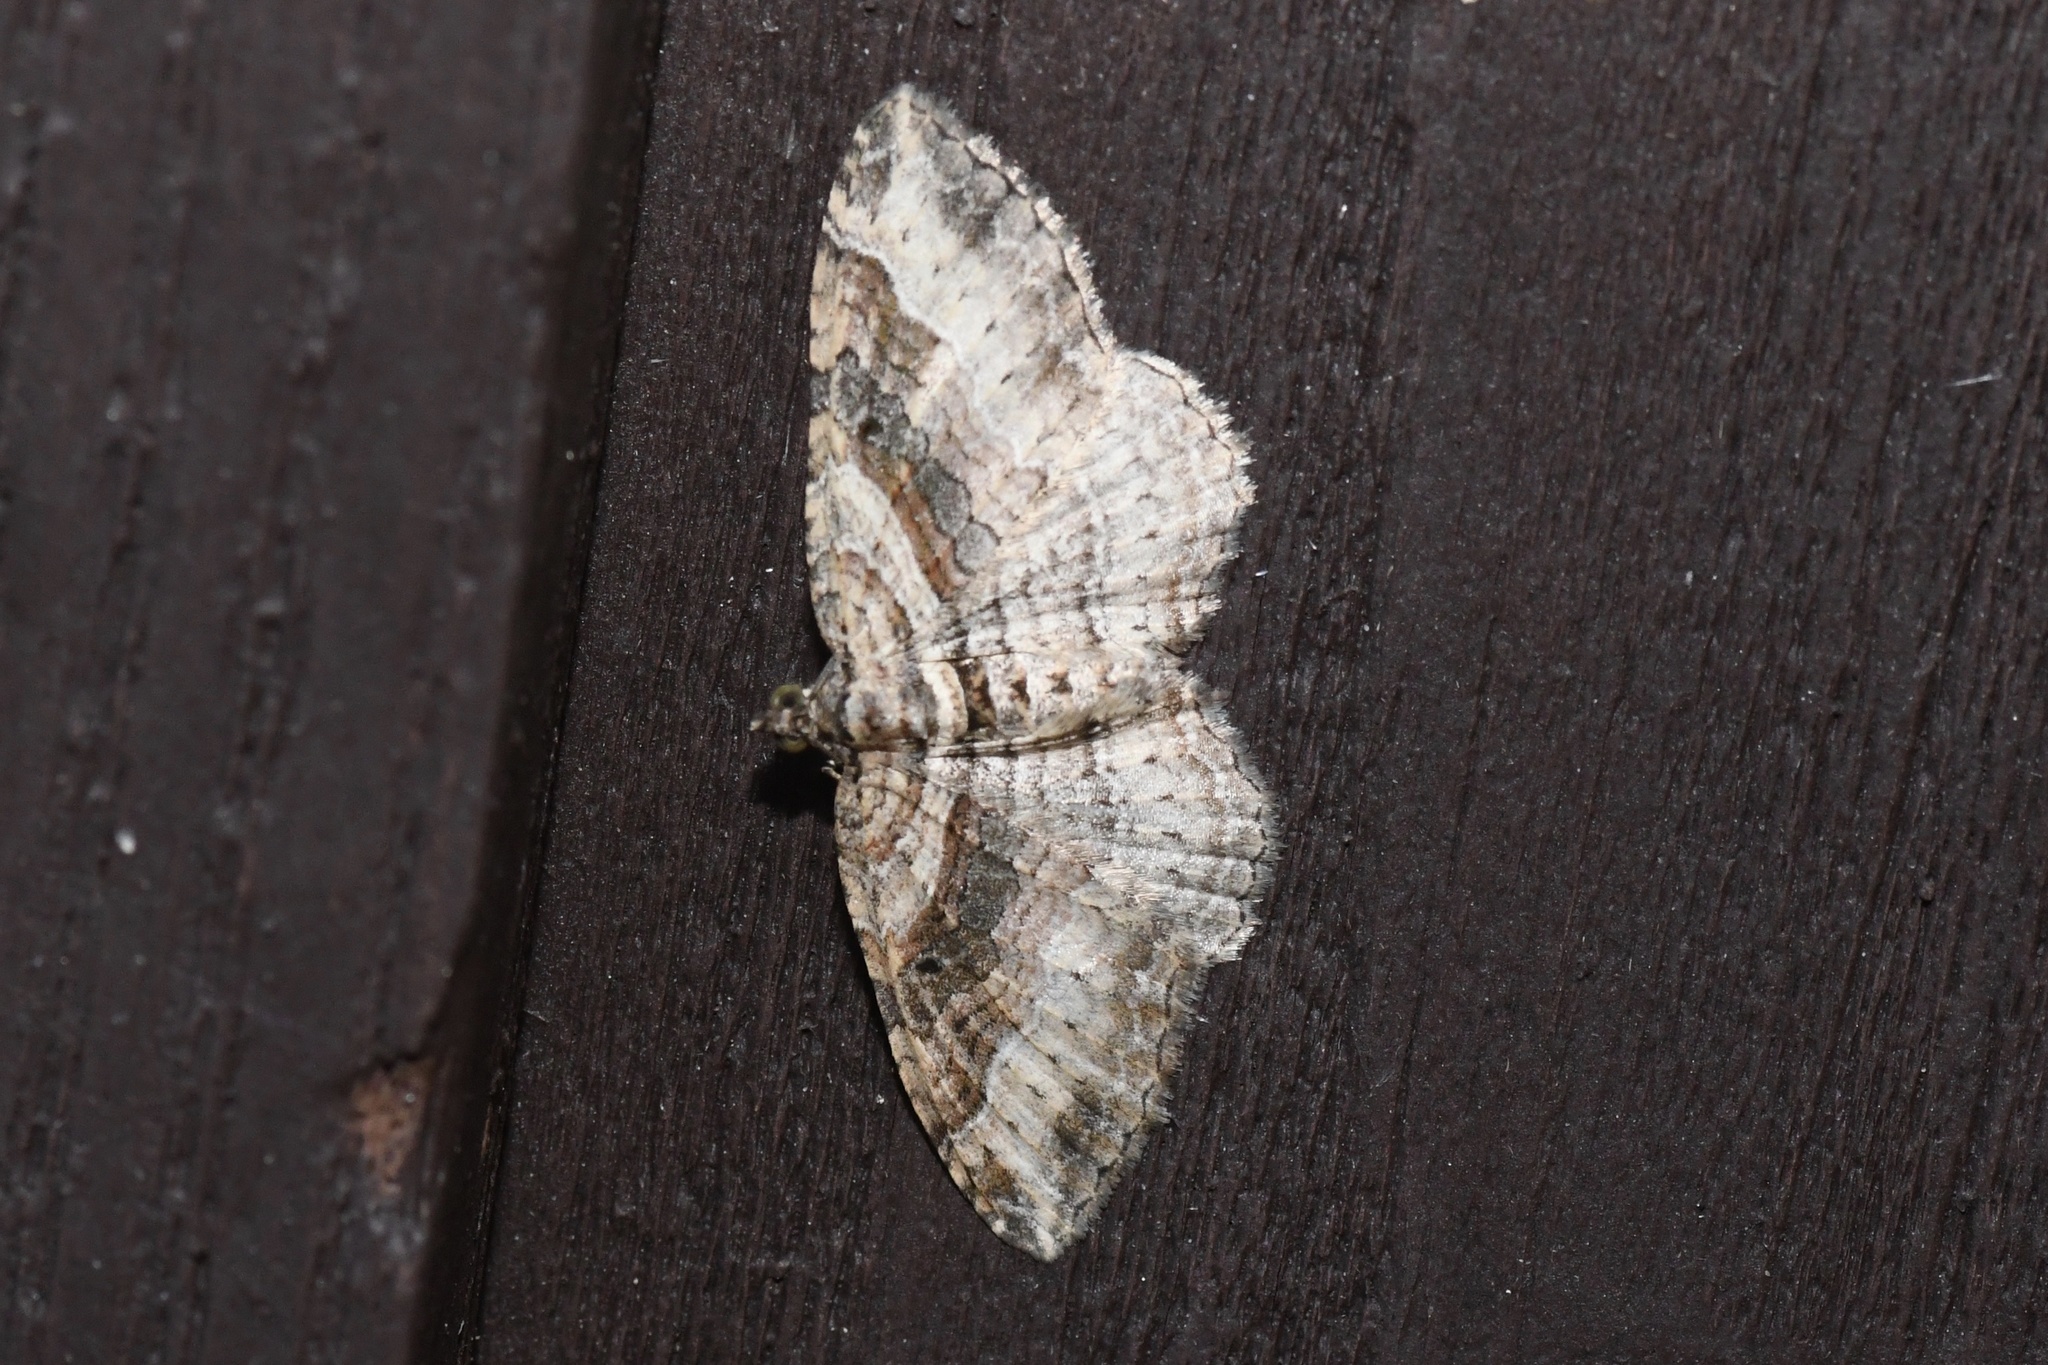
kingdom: Animalia
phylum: Arthropoda
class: Insecta
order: Lepidoptera
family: Geometridae
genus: Costaconvexa
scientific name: Costaconvexa centrostrigaria
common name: Bent-line carpet
